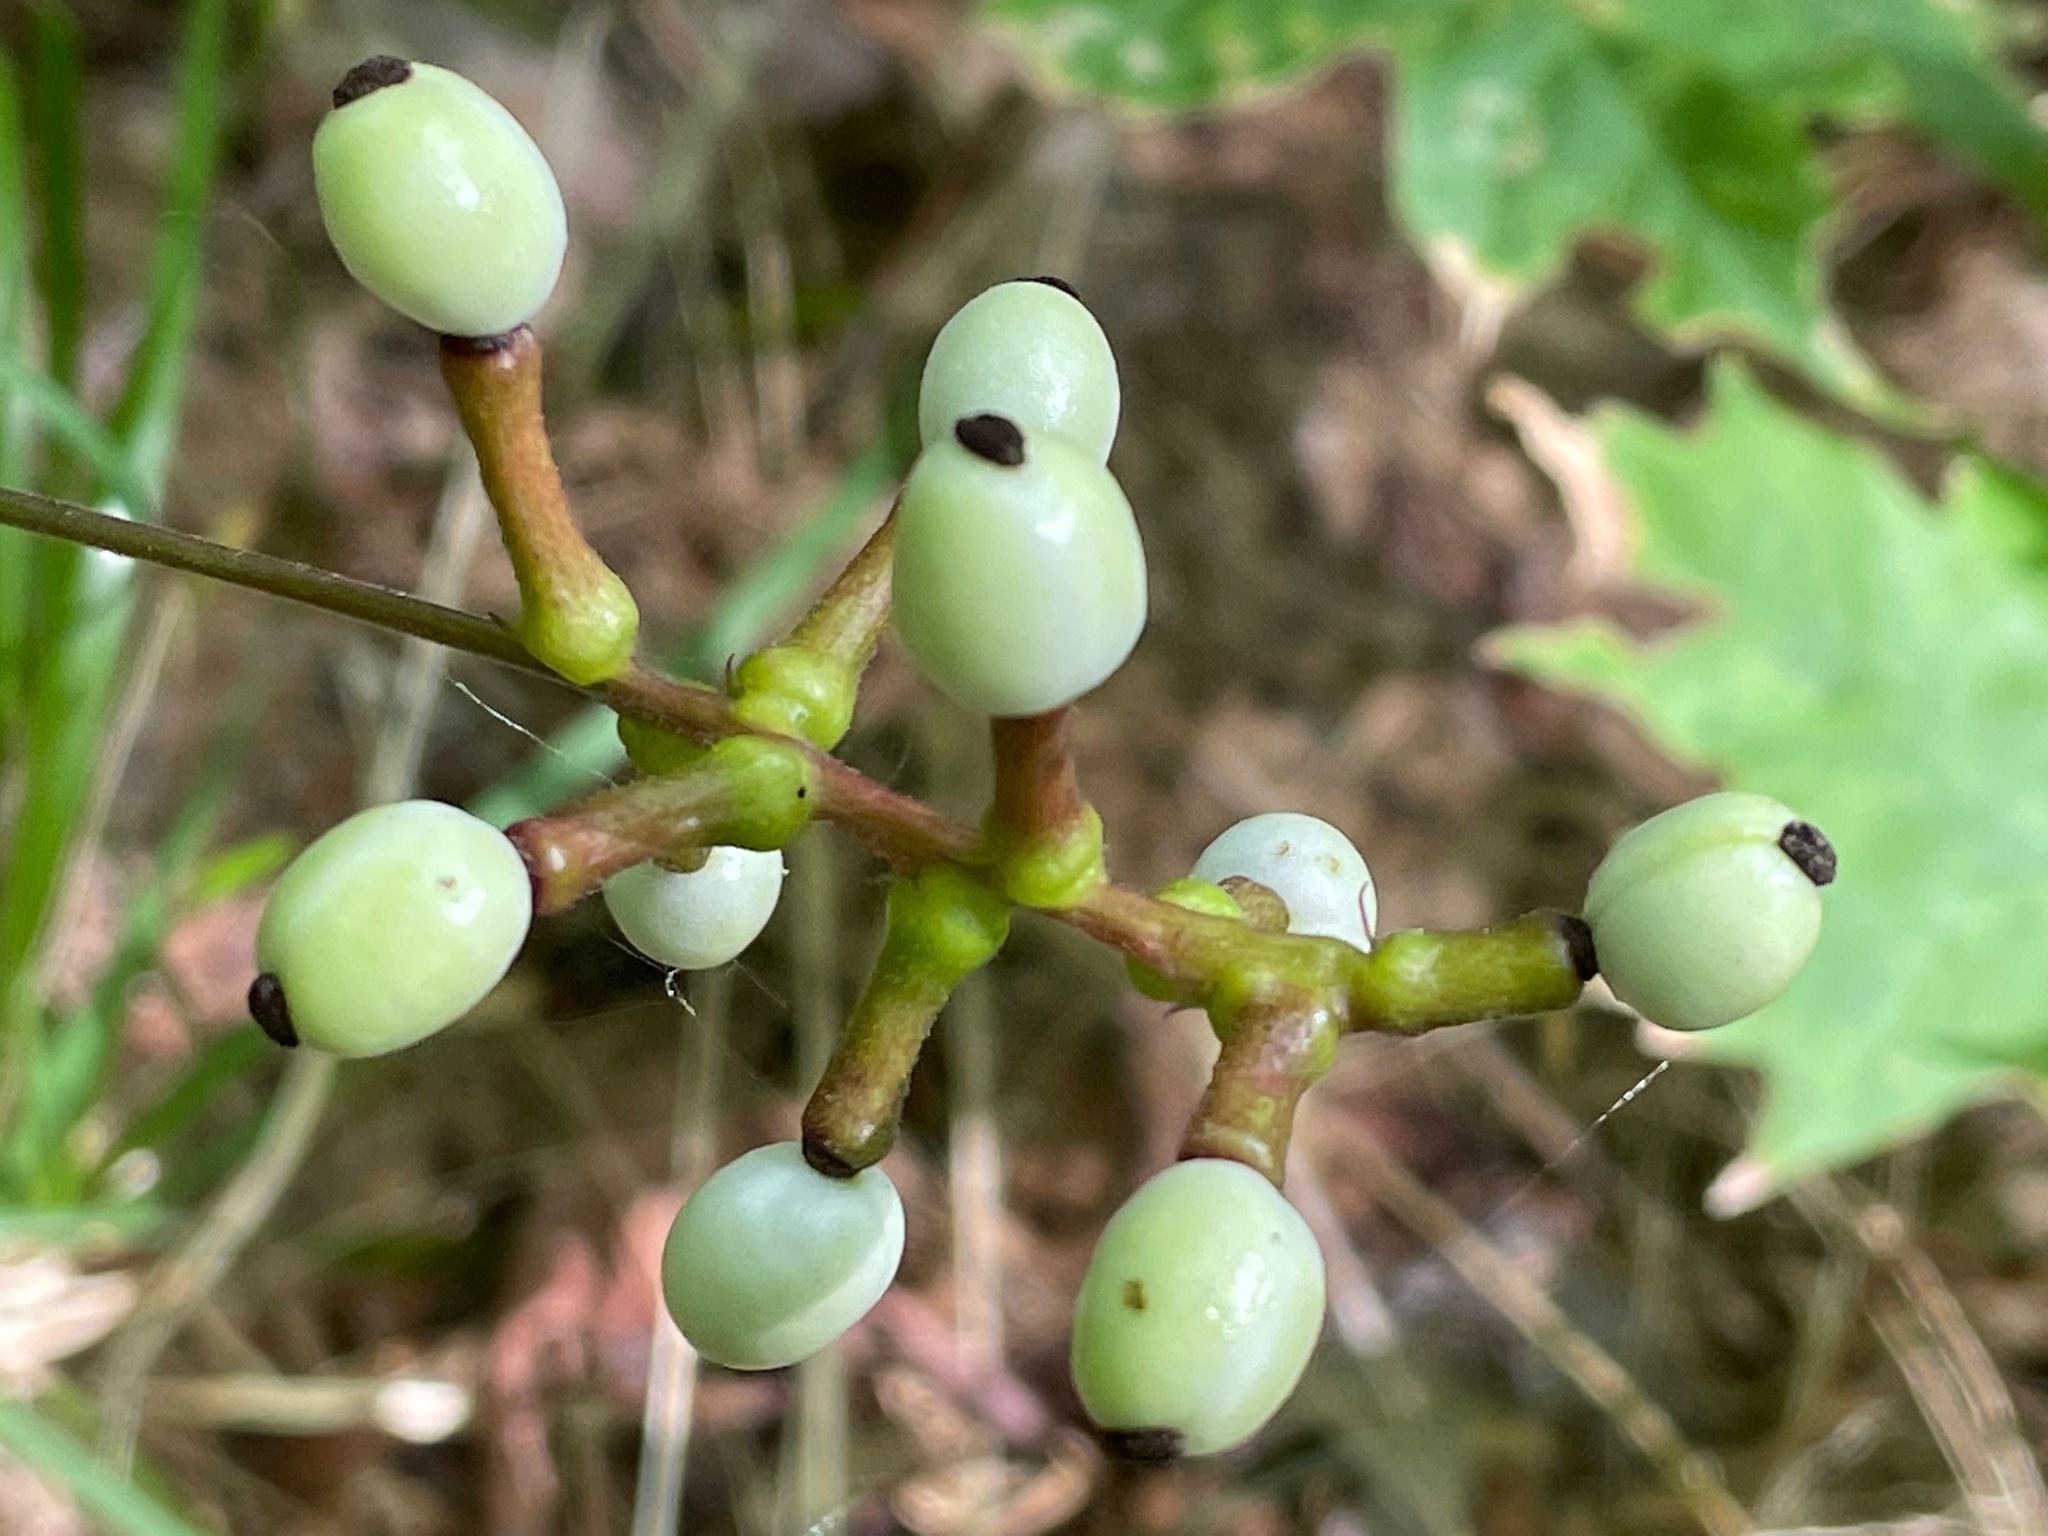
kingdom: Plantae
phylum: Tracheophyta
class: Magnoliopsida
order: Ranunculales
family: Ranunculaceae
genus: Actaea
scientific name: Actaea pachypoda
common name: Doll's-eyes
